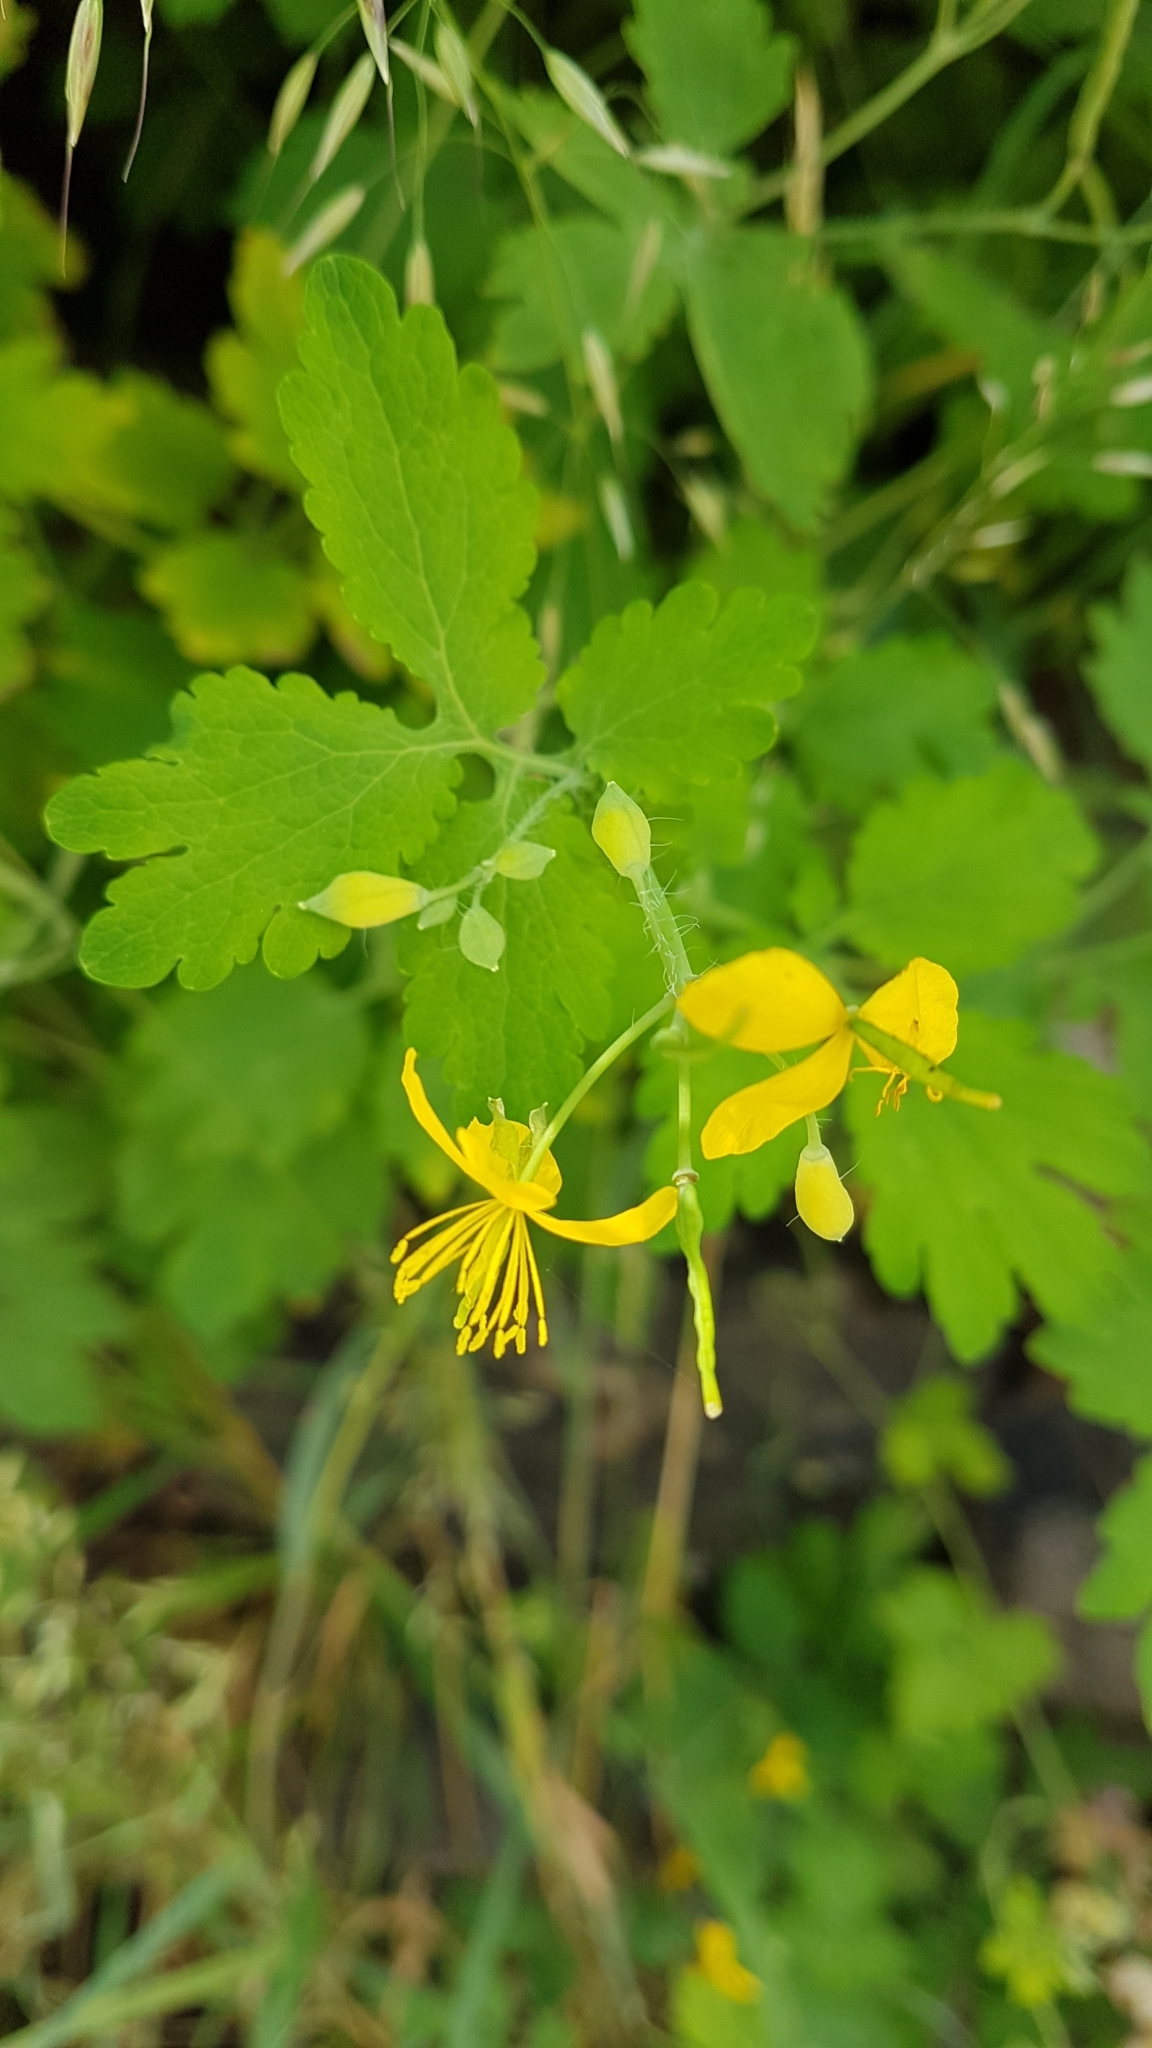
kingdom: Plantae
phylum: Tracheophyta
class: Magnoliopsida
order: Ranunculales
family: Papaveraceae
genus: Chelidonium
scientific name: Chelidonium majus
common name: Greater celandine
